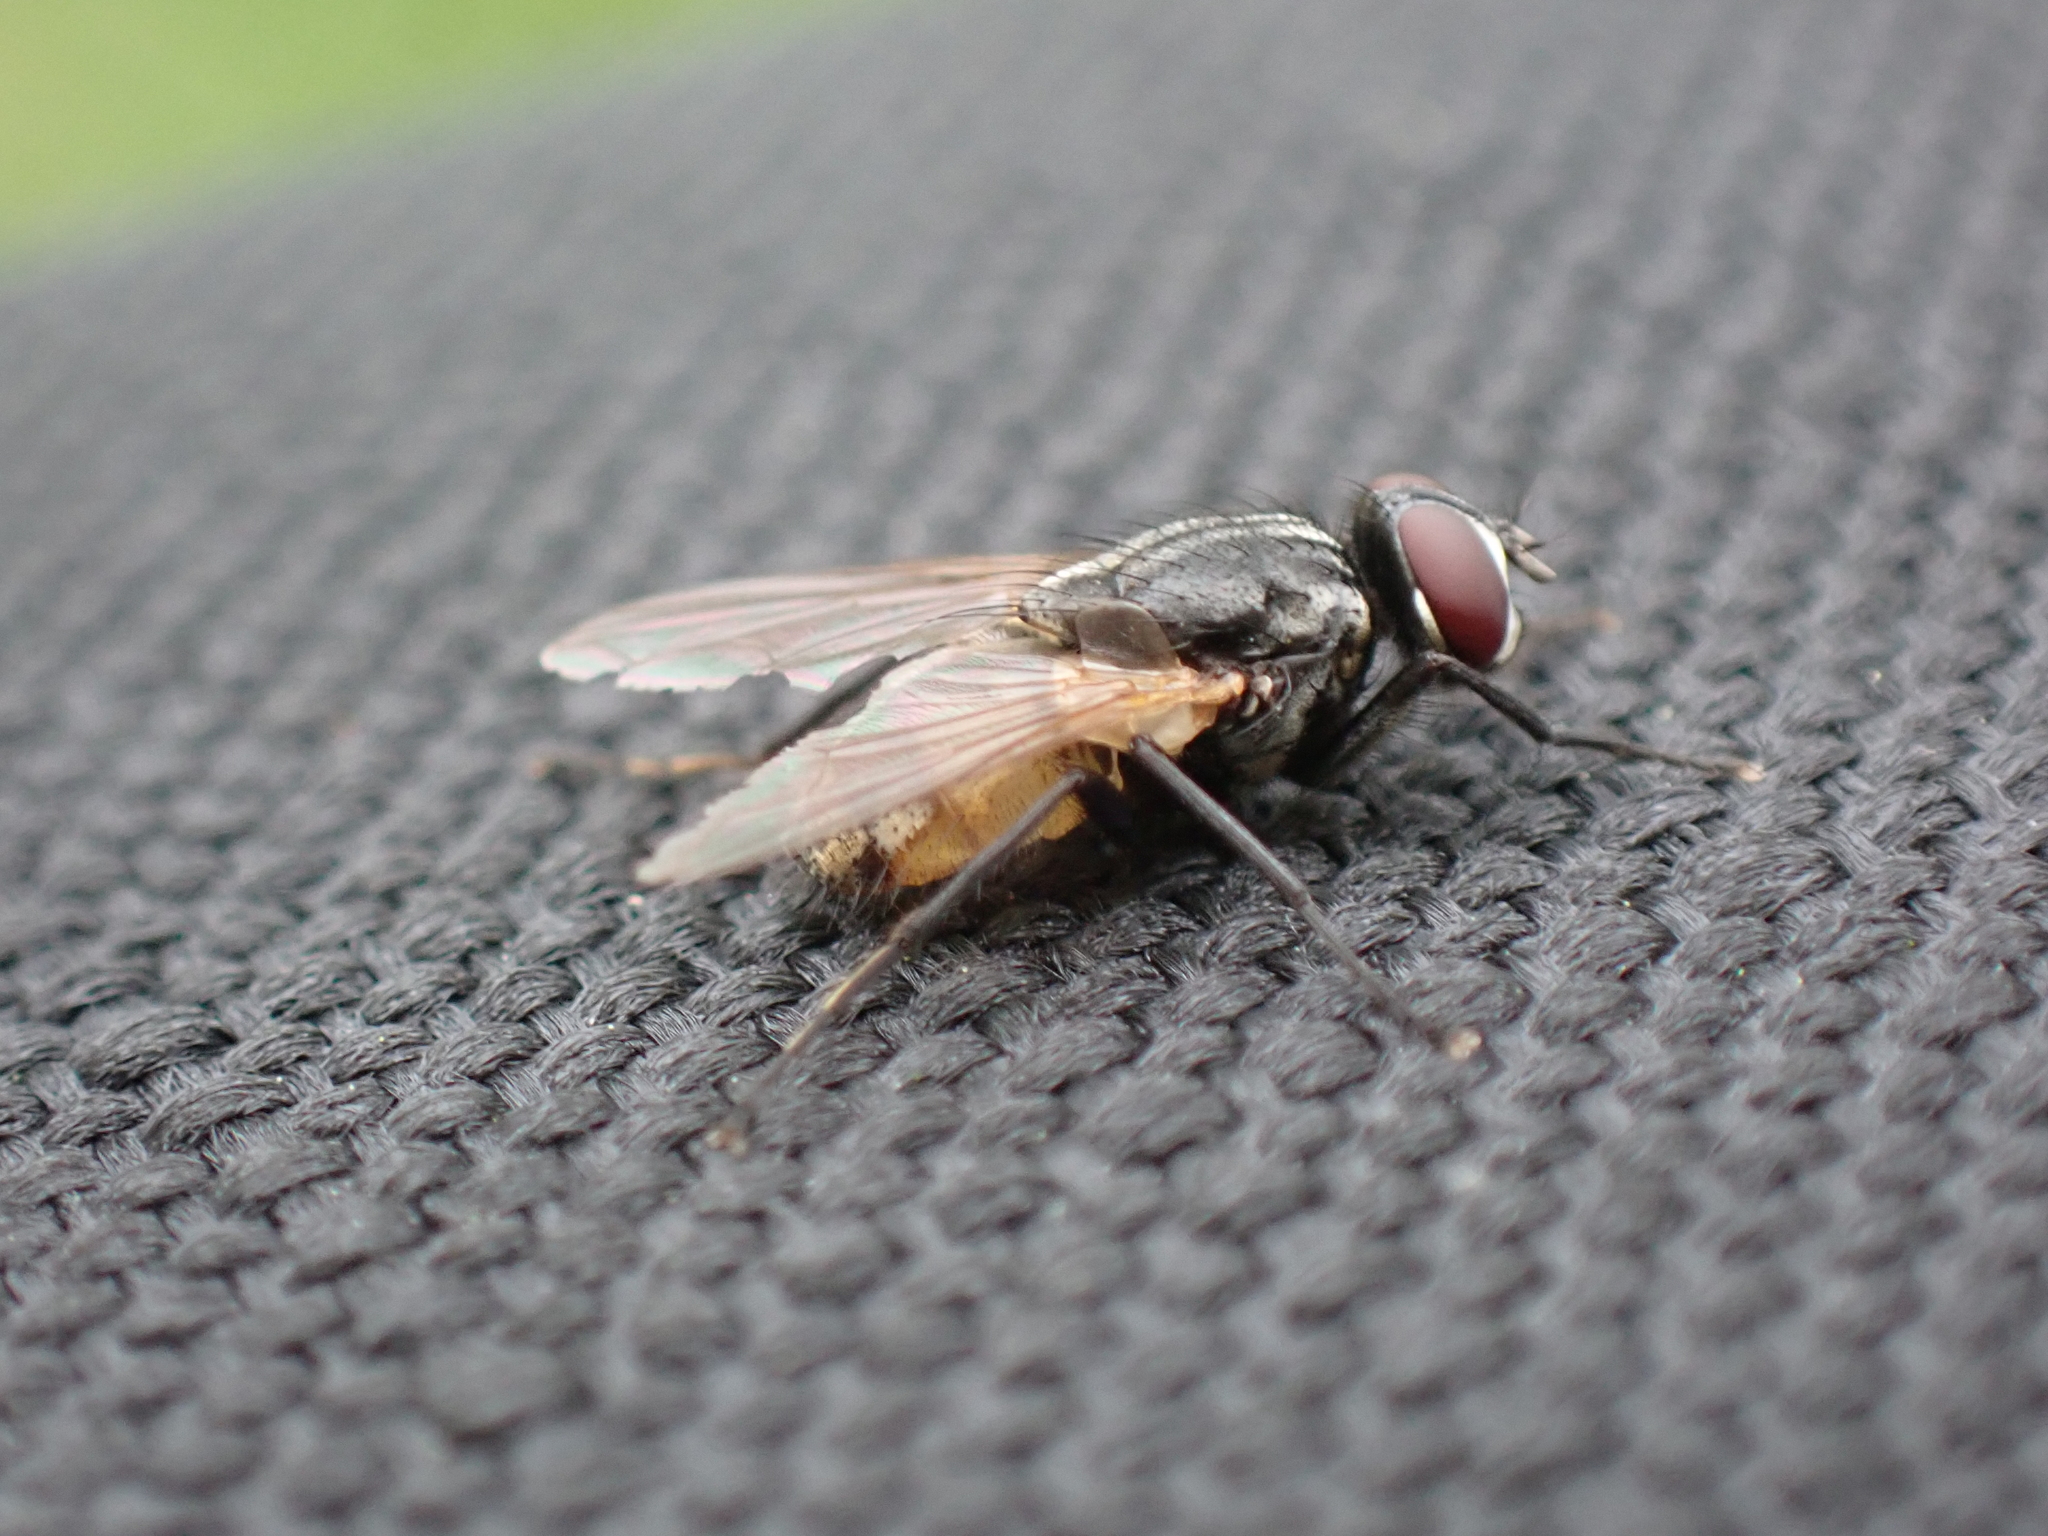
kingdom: Animalia
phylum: Arthropoda
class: Insecta
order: Diptera
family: Muscidae
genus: Musca
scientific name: Musca domestica
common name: House fly
